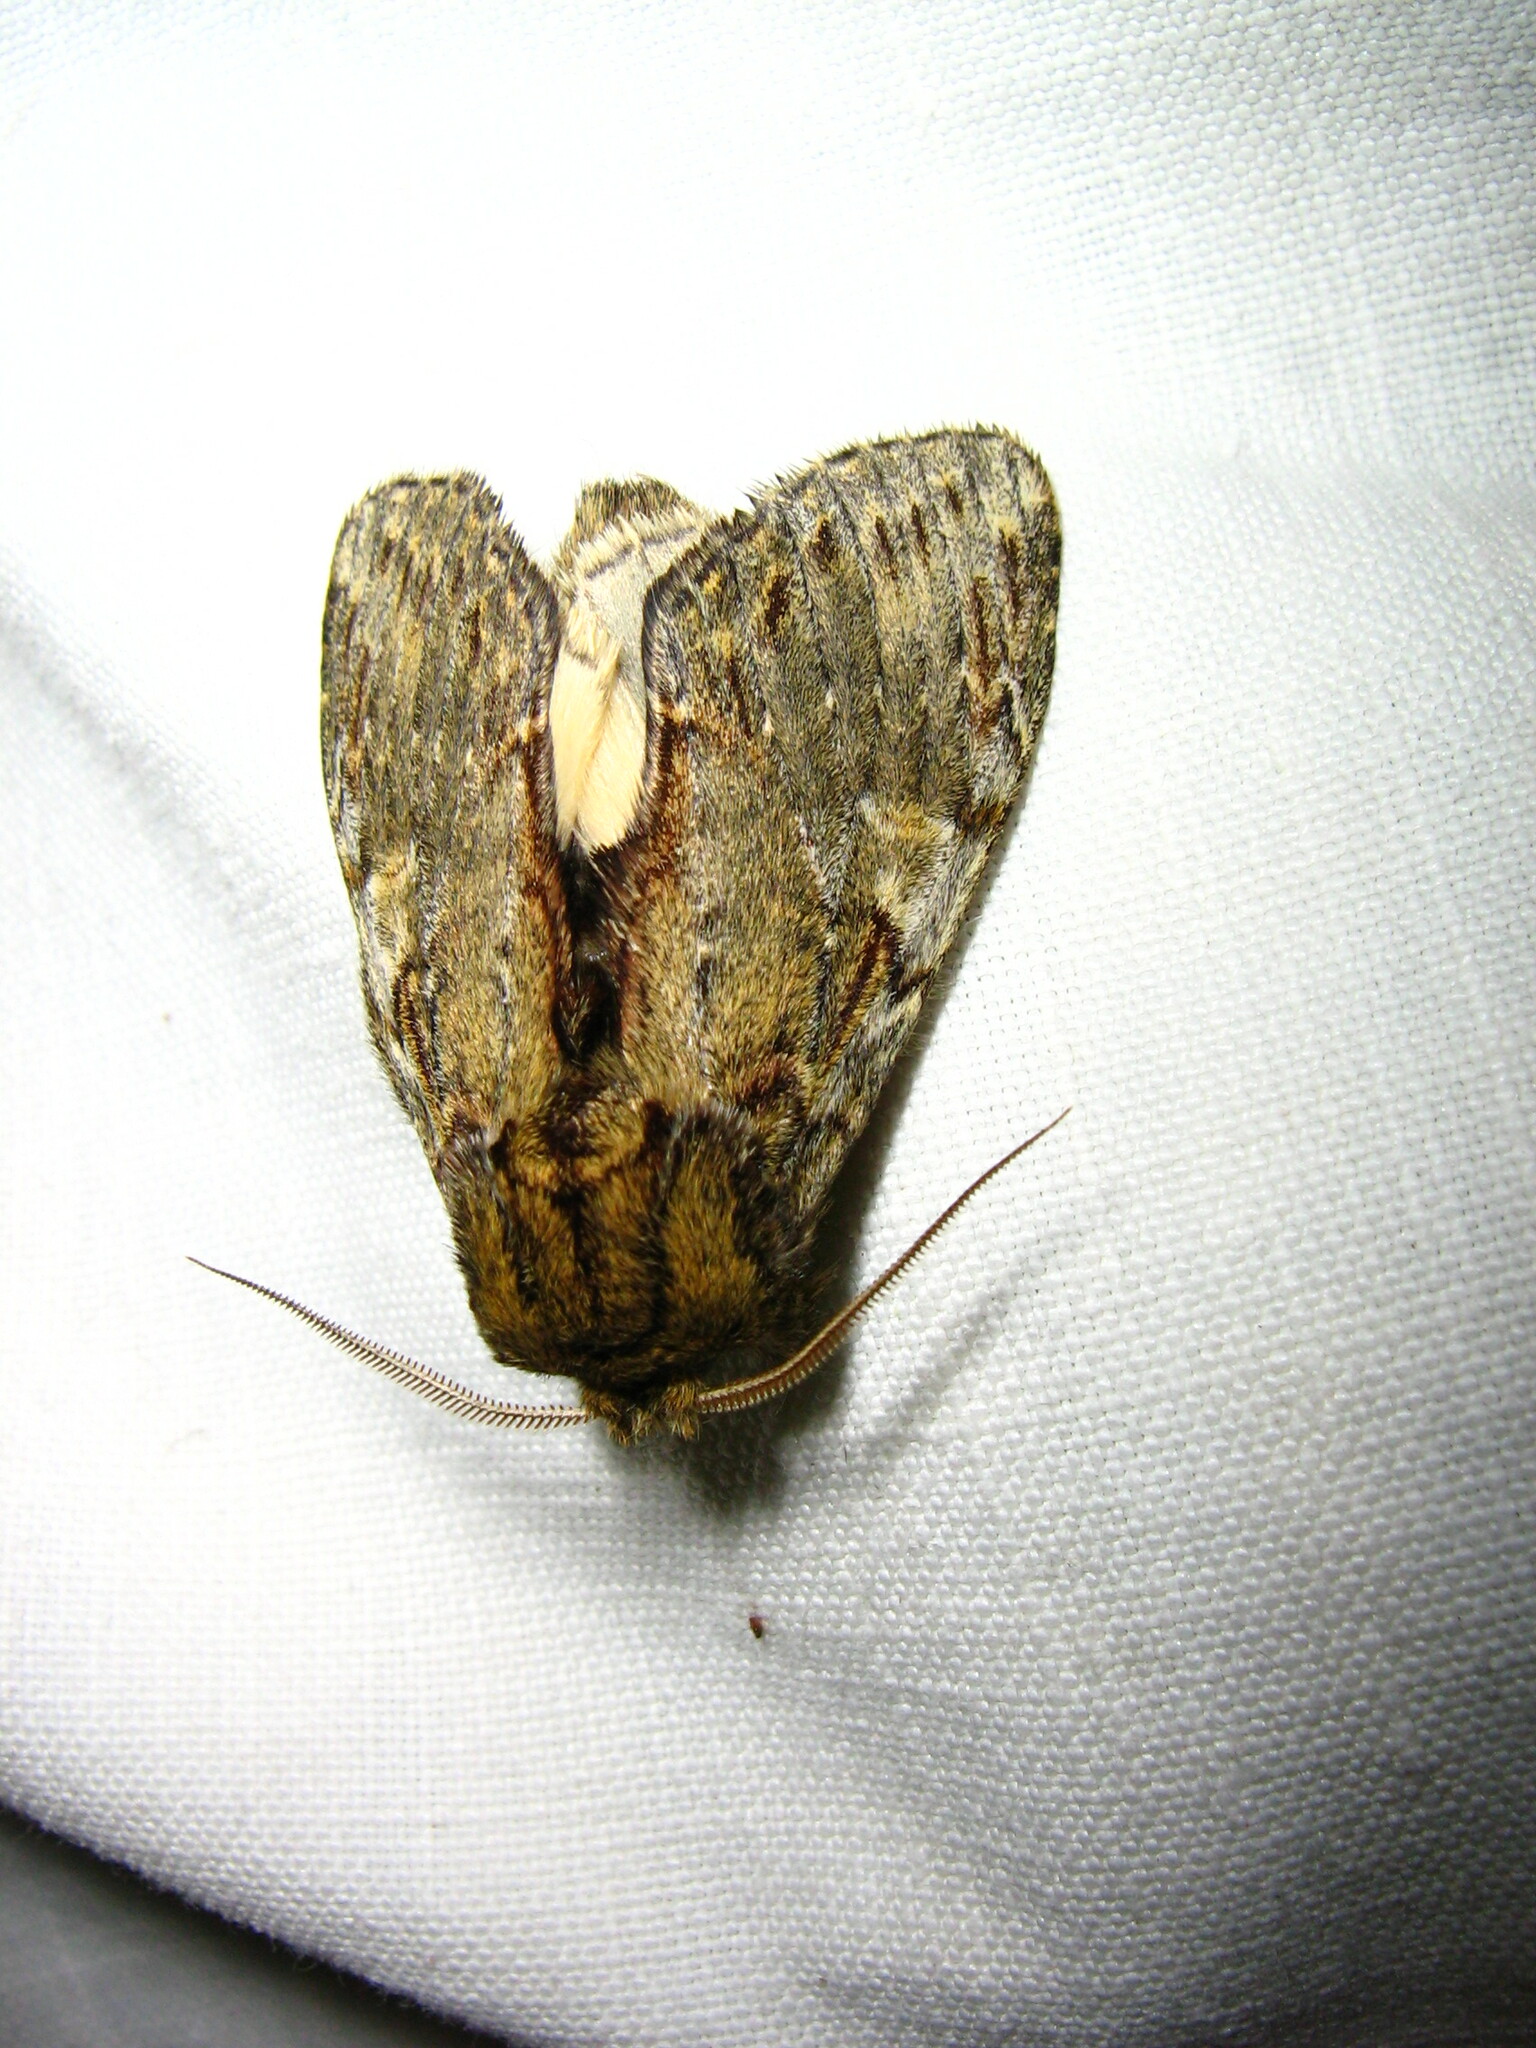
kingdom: Animalia
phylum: Arthropoda
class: Insecta
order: Lepidoptera
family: Notodontidae
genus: Peridea
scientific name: Peridea anceps
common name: Great prominent
